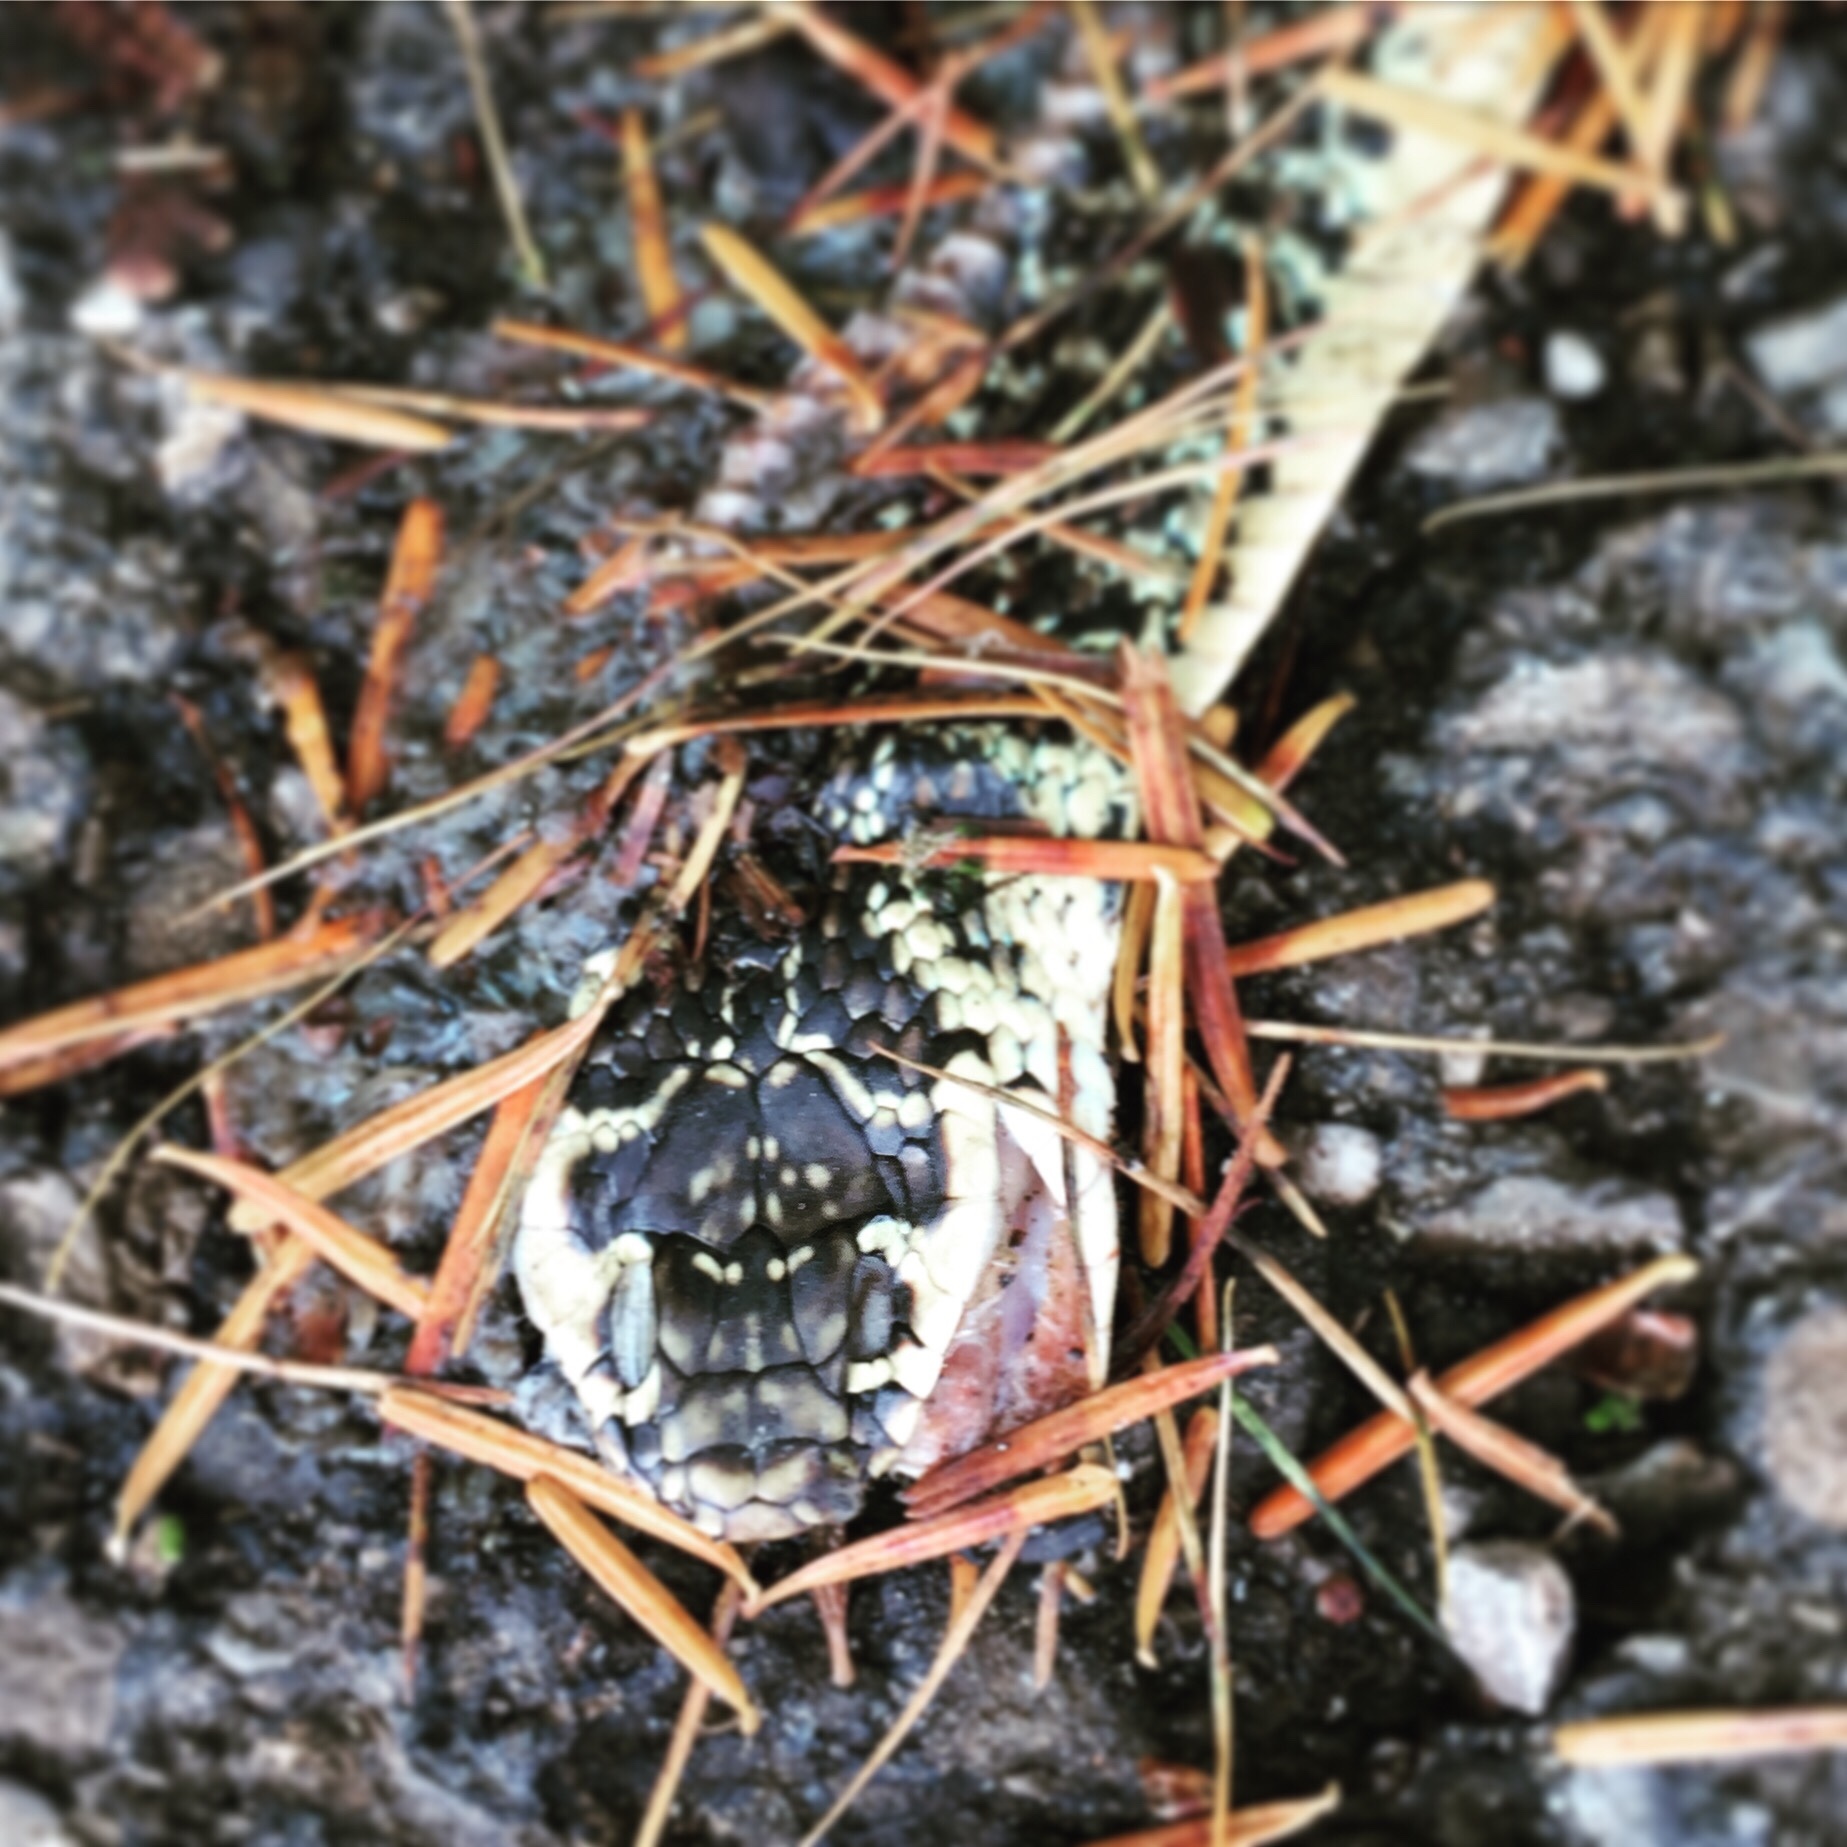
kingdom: Animalia
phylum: Chordata
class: Squamata
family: Colubridae
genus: Hierophis
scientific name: Hierophis viridiflavus
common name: Green whip snake
